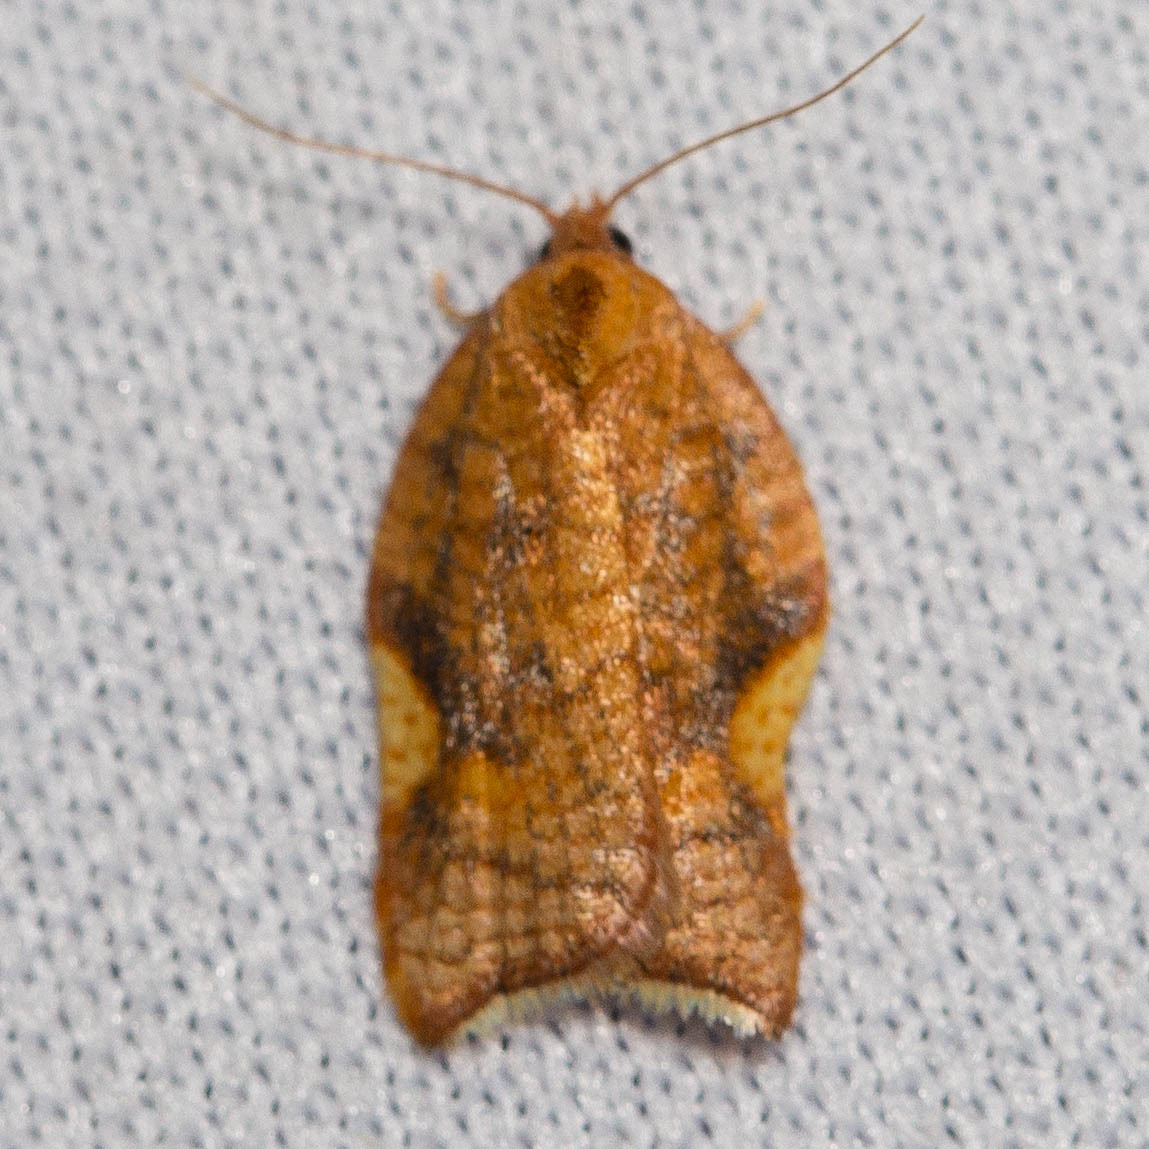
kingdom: Animalia
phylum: Arthropoda
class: Insecta
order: Lepidoptera
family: Tortricidae
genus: Acleris
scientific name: Acleris foliana
